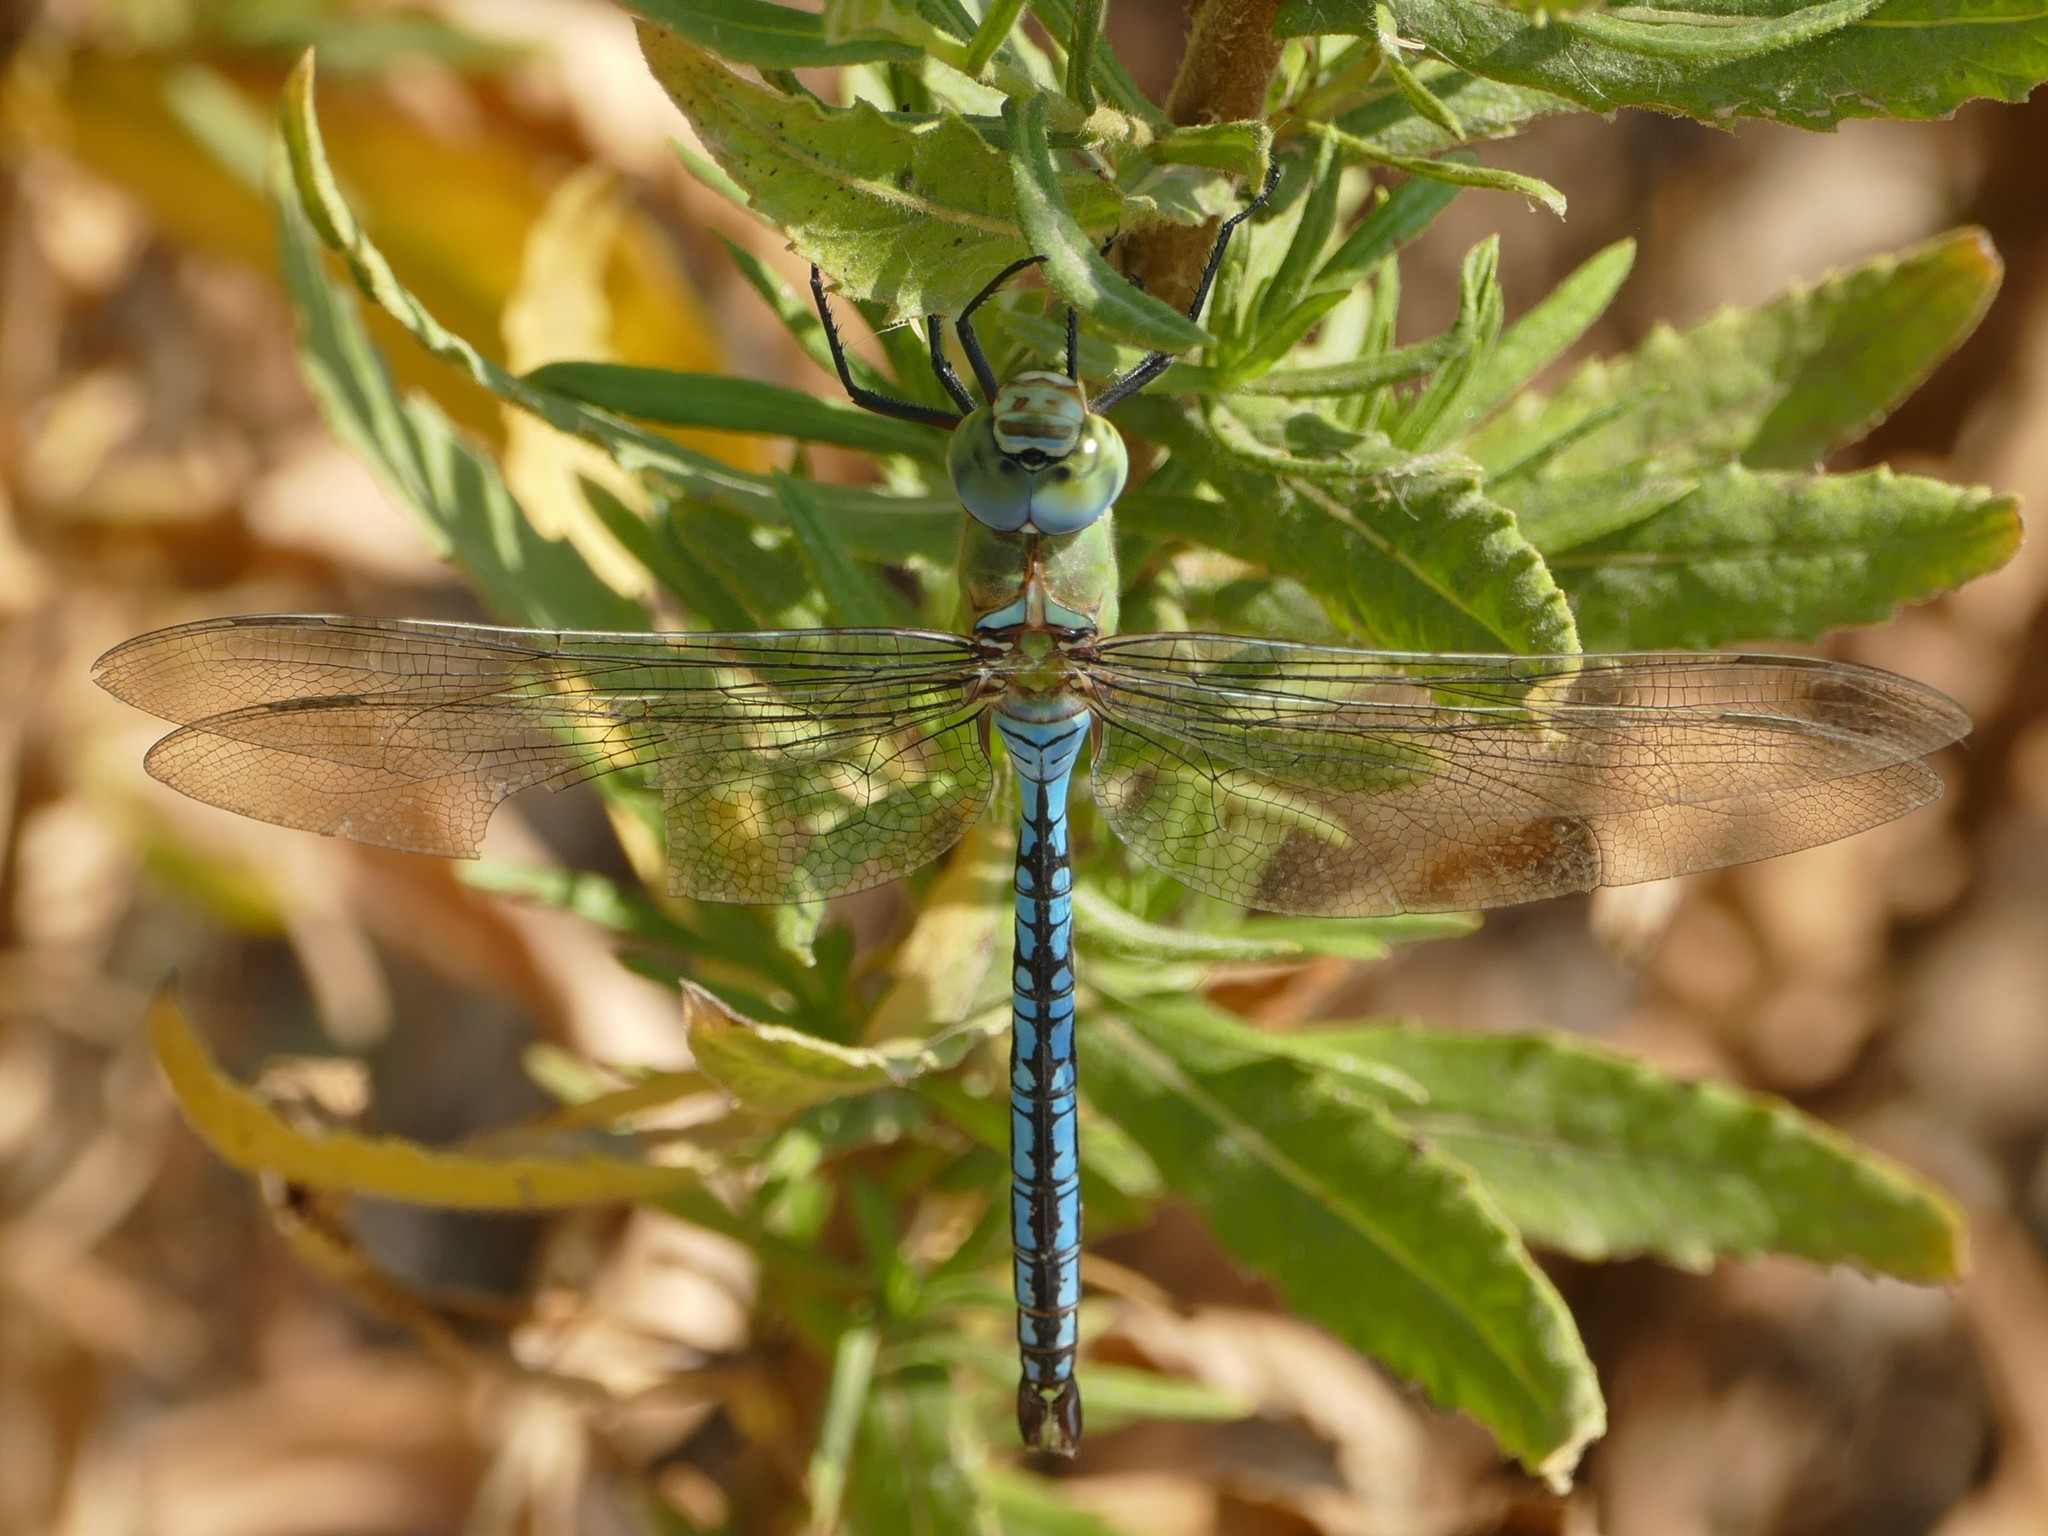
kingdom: Animalia
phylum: Arthropoda
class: Insecta
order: Odonata
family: Aeshnidae
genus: Anax
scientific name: Anax imperator
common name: Emperor dragonfly
